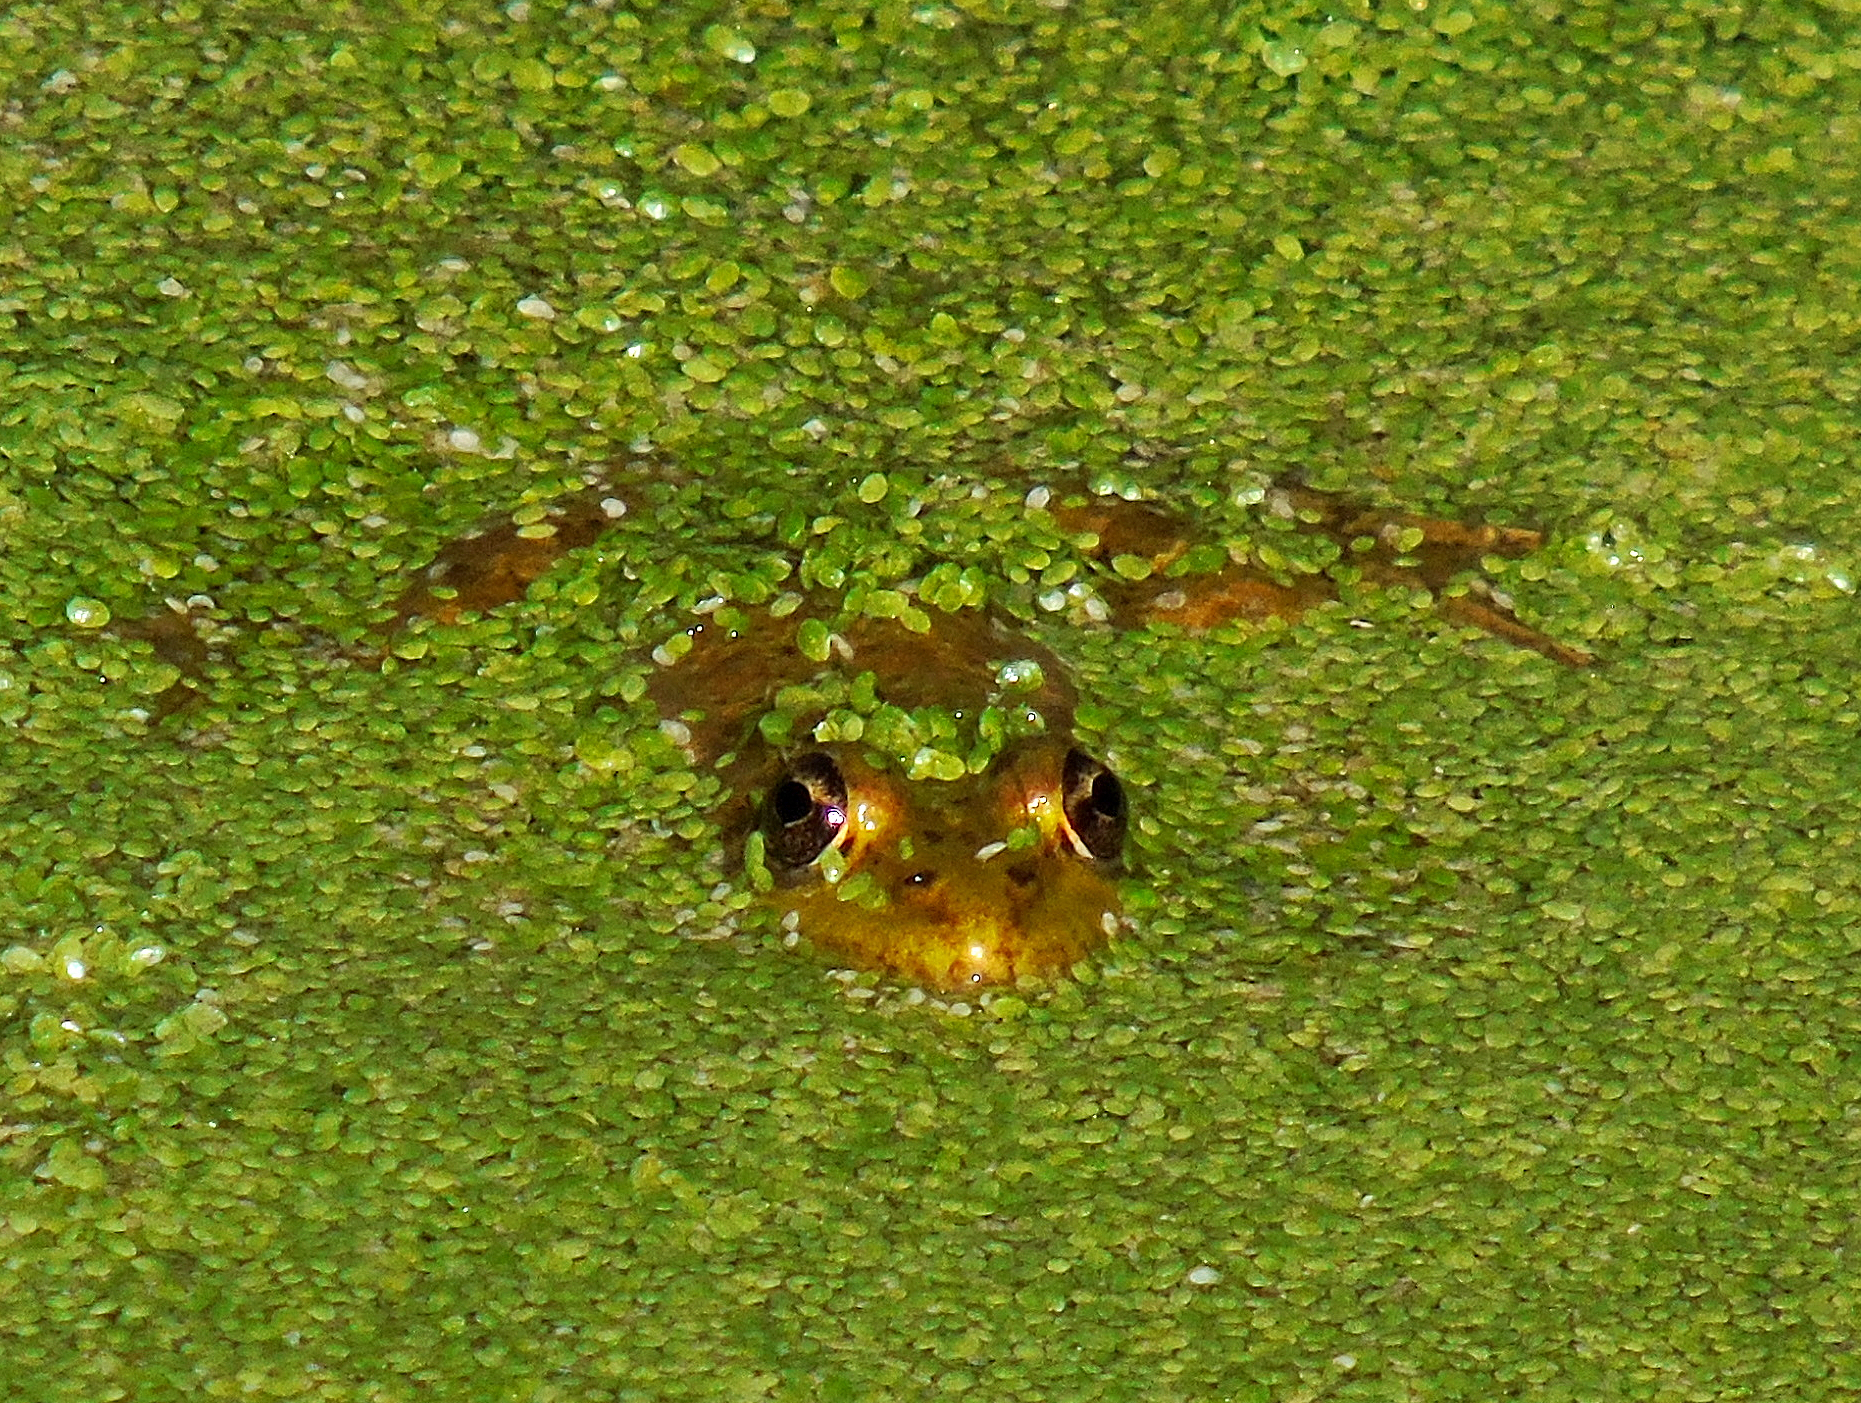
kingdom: Animalia
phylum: Chordata
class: Amphibia
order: Anura
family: Ranidae
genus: Pelophylax
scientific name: Pelophylax ridibundus
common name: Marsh frog
